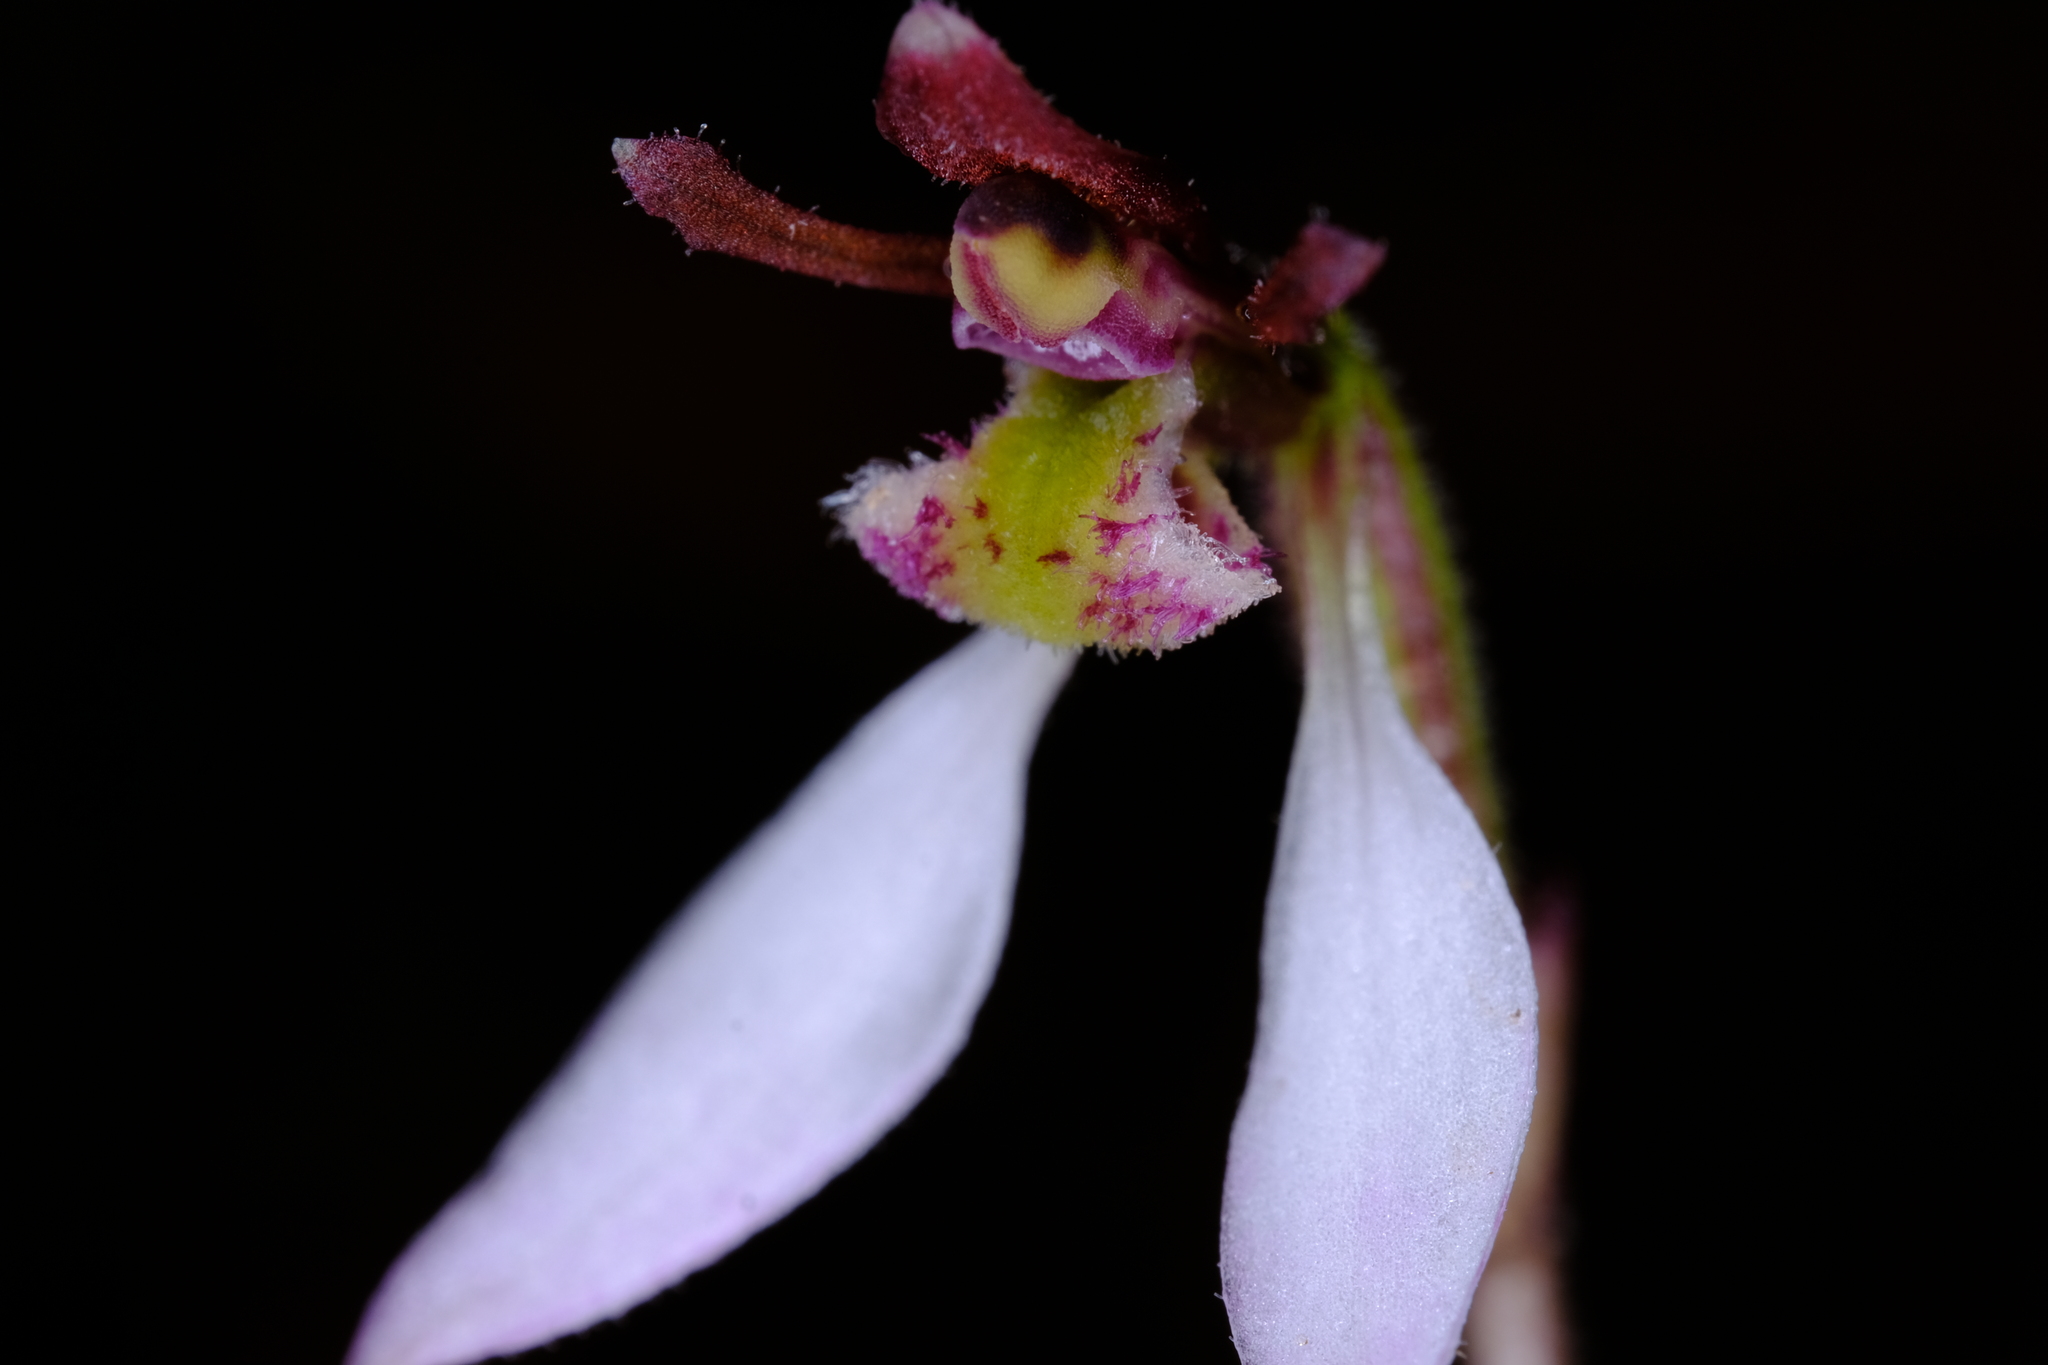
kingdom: Plantae
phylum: Tracheophyta
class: Liliopsida
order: Asparagales
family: Orchidaceae
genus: Eriochilus
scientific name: Eriochilus cucullatus
